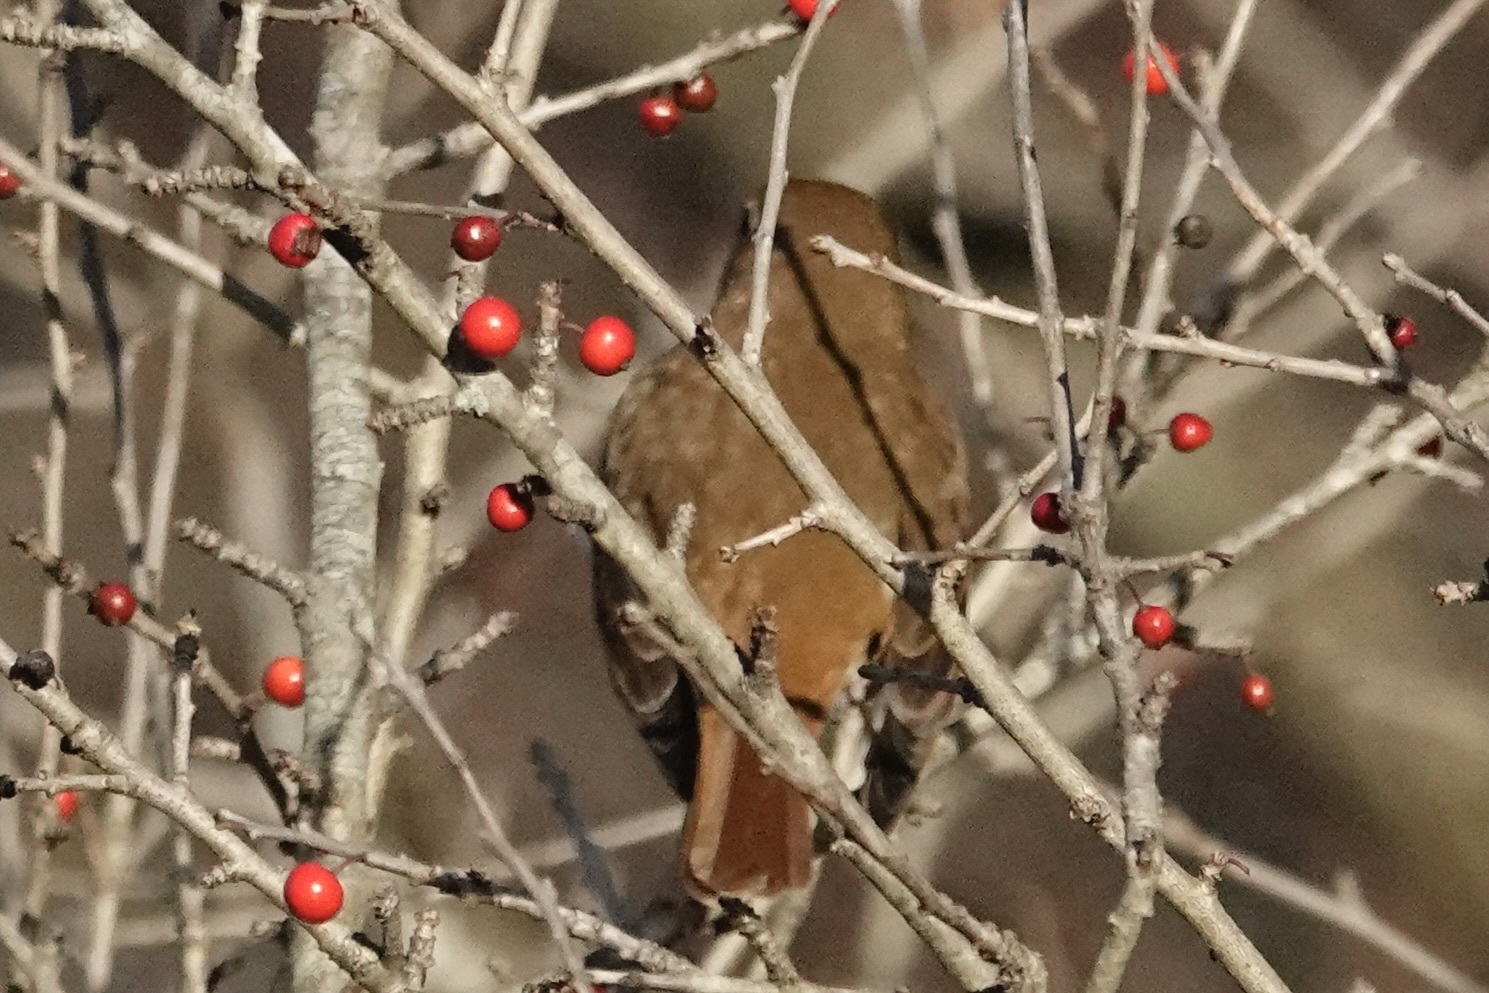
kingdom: Animalia
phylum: Chordata
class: Aves
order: Passeriformes
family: Turdidae
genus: Catharus
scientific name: Catharus guttatus
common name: Hermit thrush
